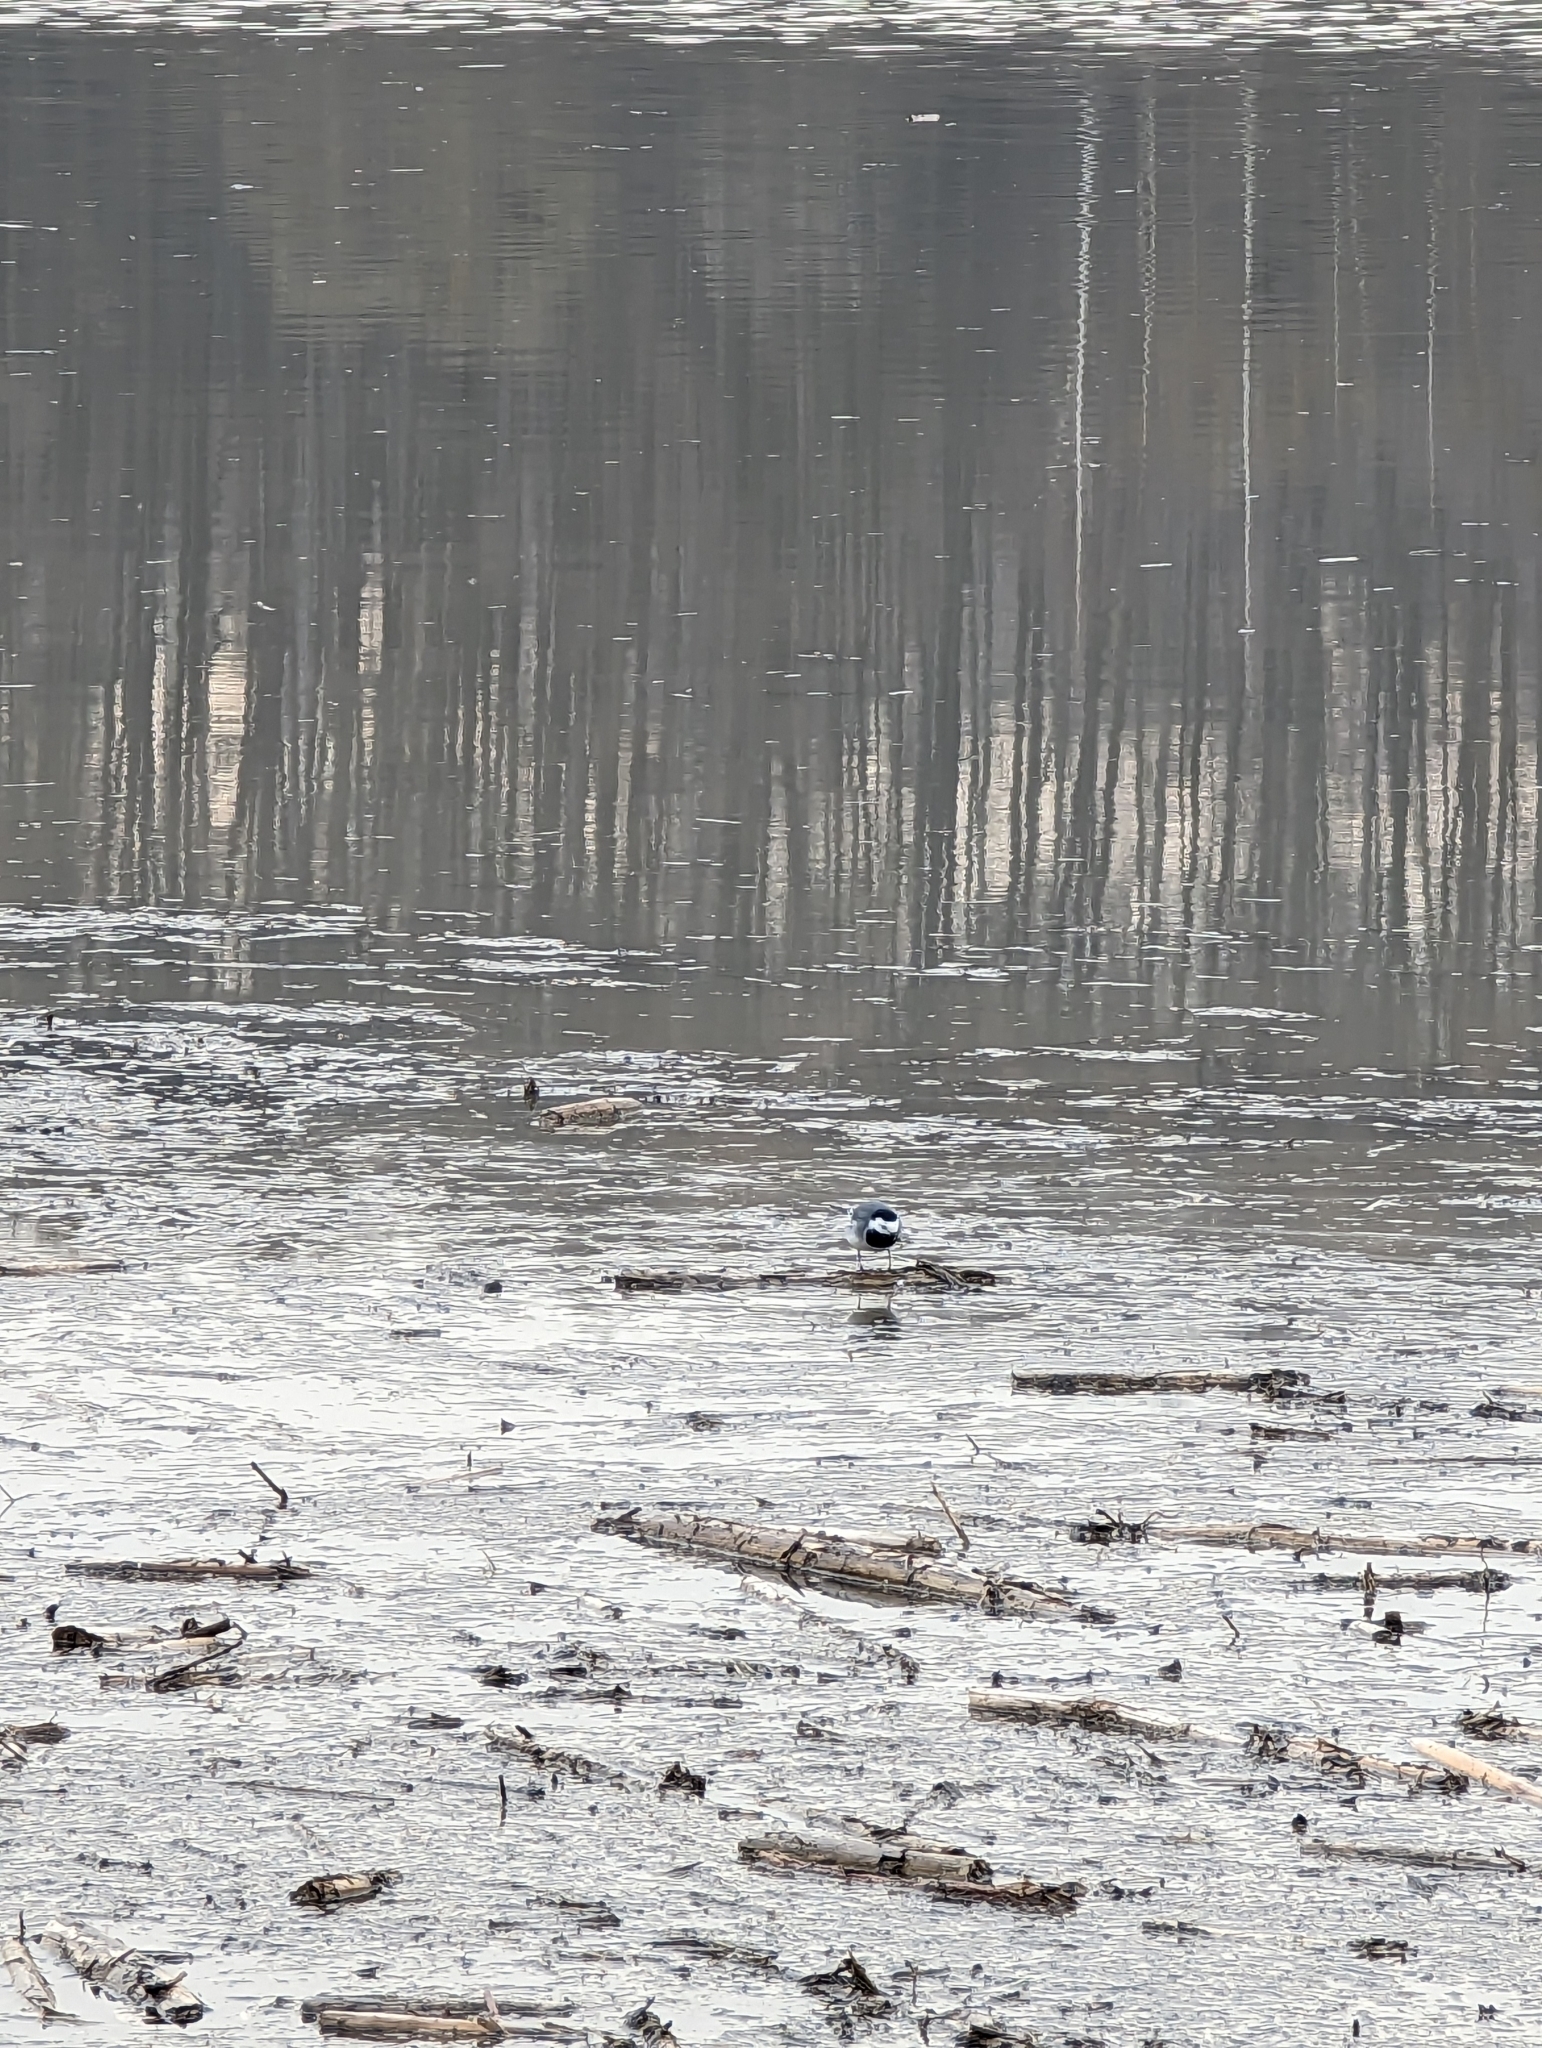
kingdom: Animalia
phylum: Chordata
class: Aves
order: Passeriformes
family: Motacillidae
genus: Motacilla
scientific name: Motacilla alba
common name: White wagtail
